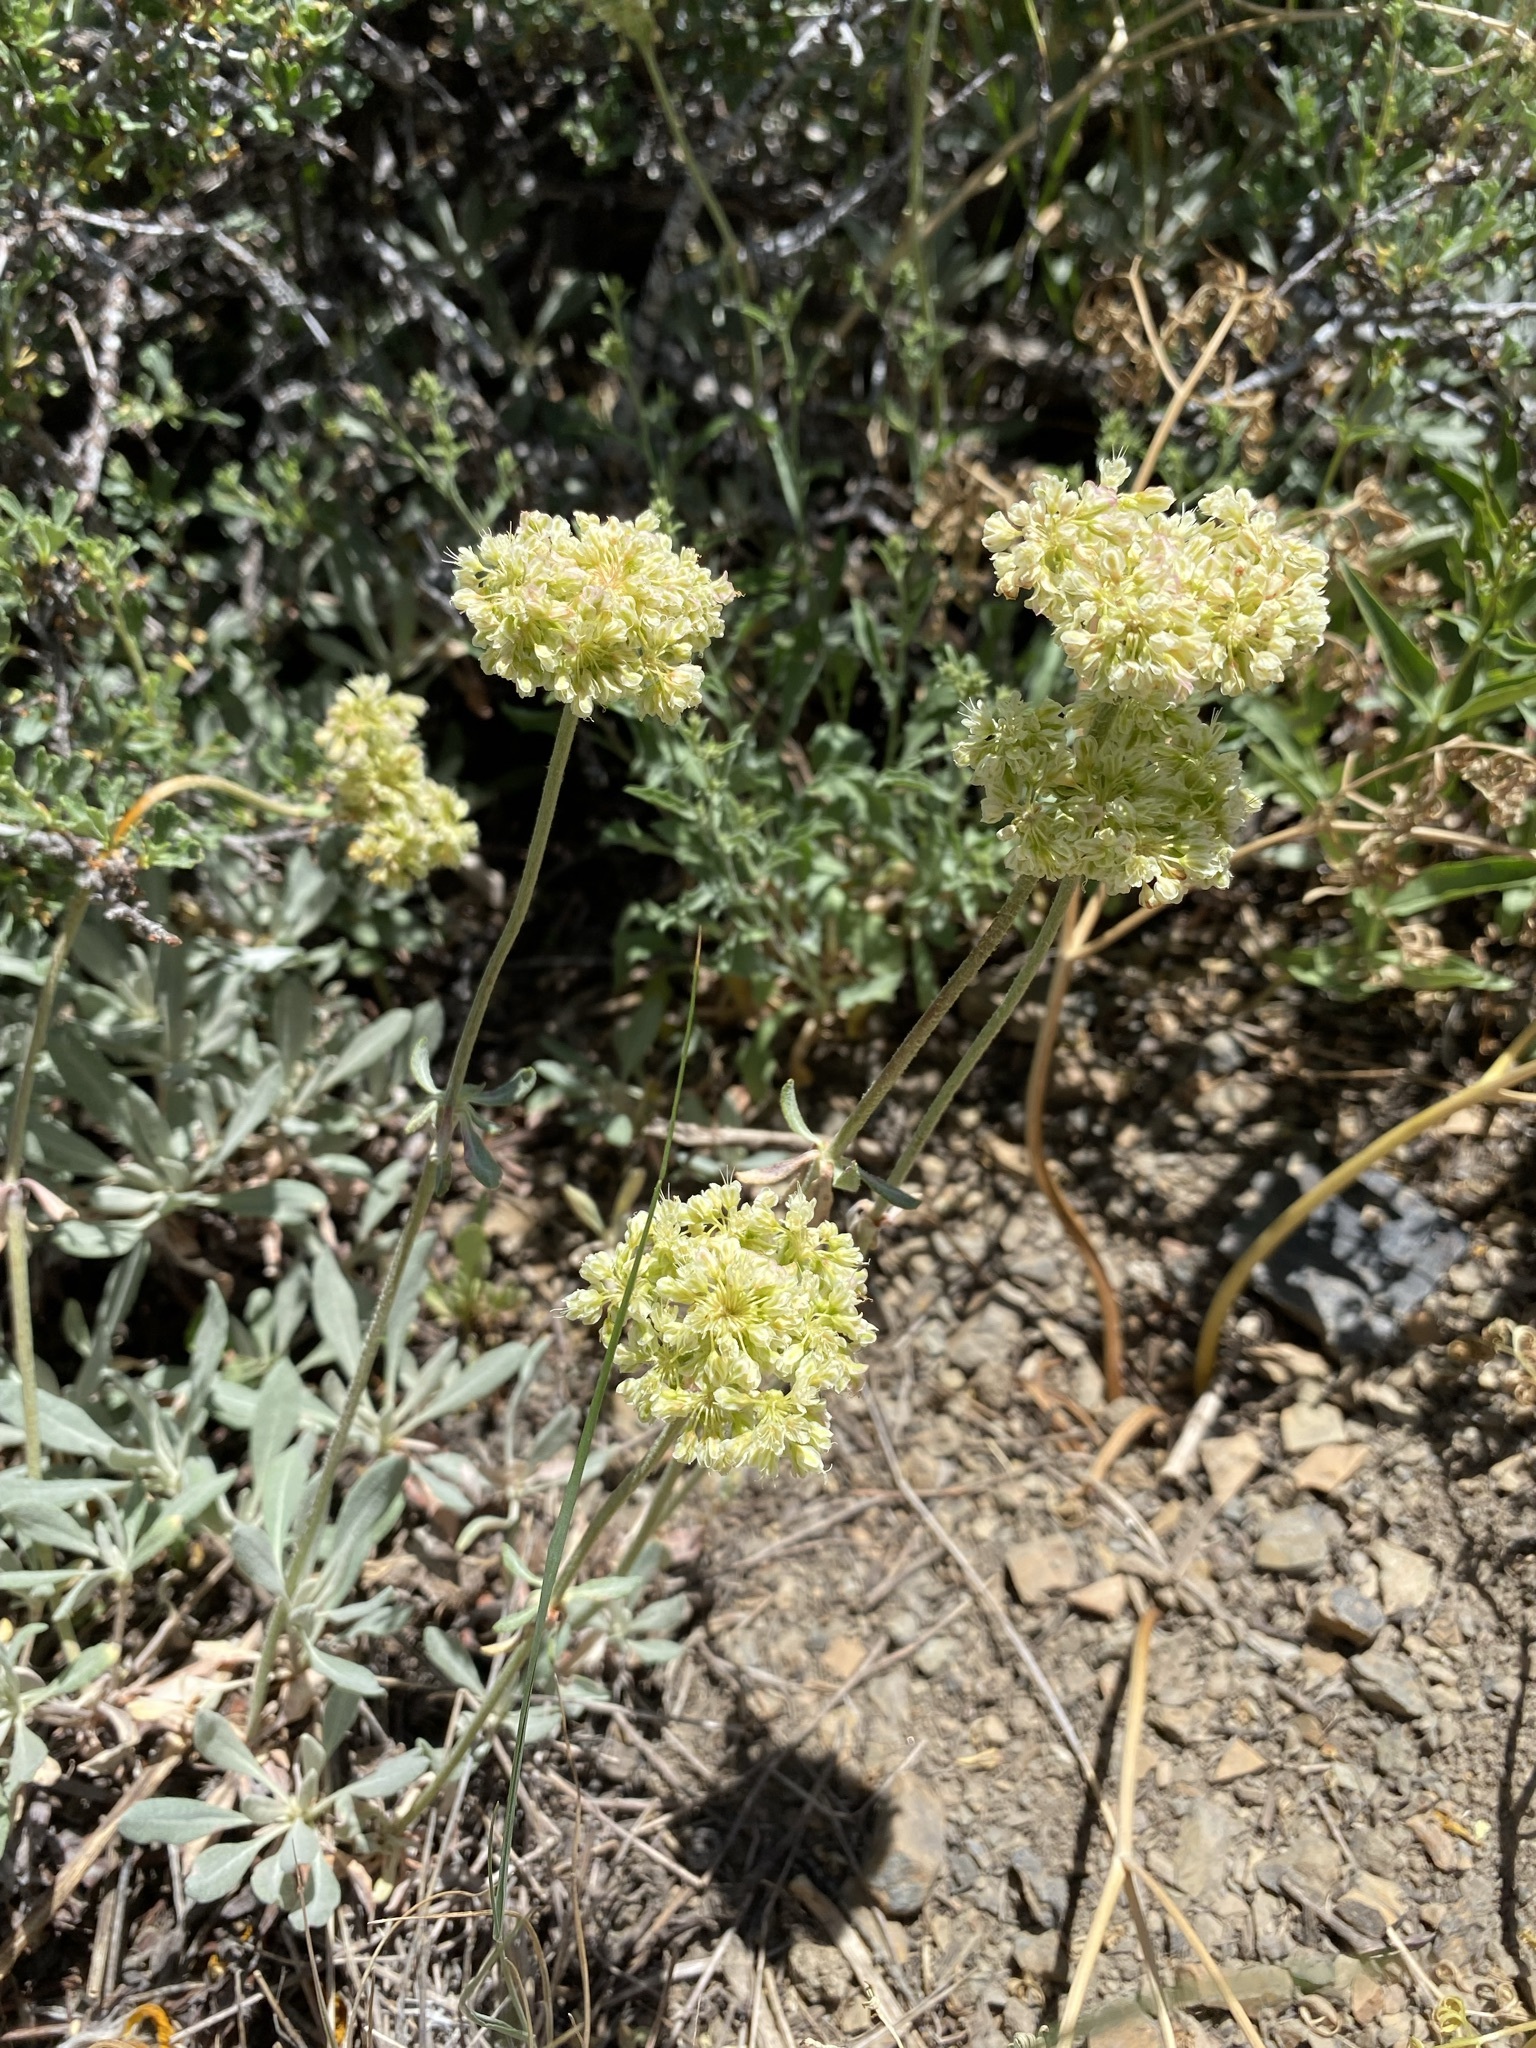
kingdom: Plantae
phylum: Tracheophyta
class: Magnoliopsida
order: Caryophyllales
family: Polygonaceae
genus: Eriogonum
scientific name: Eriogonum heracleoides
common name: Wyeth's buckwheat
